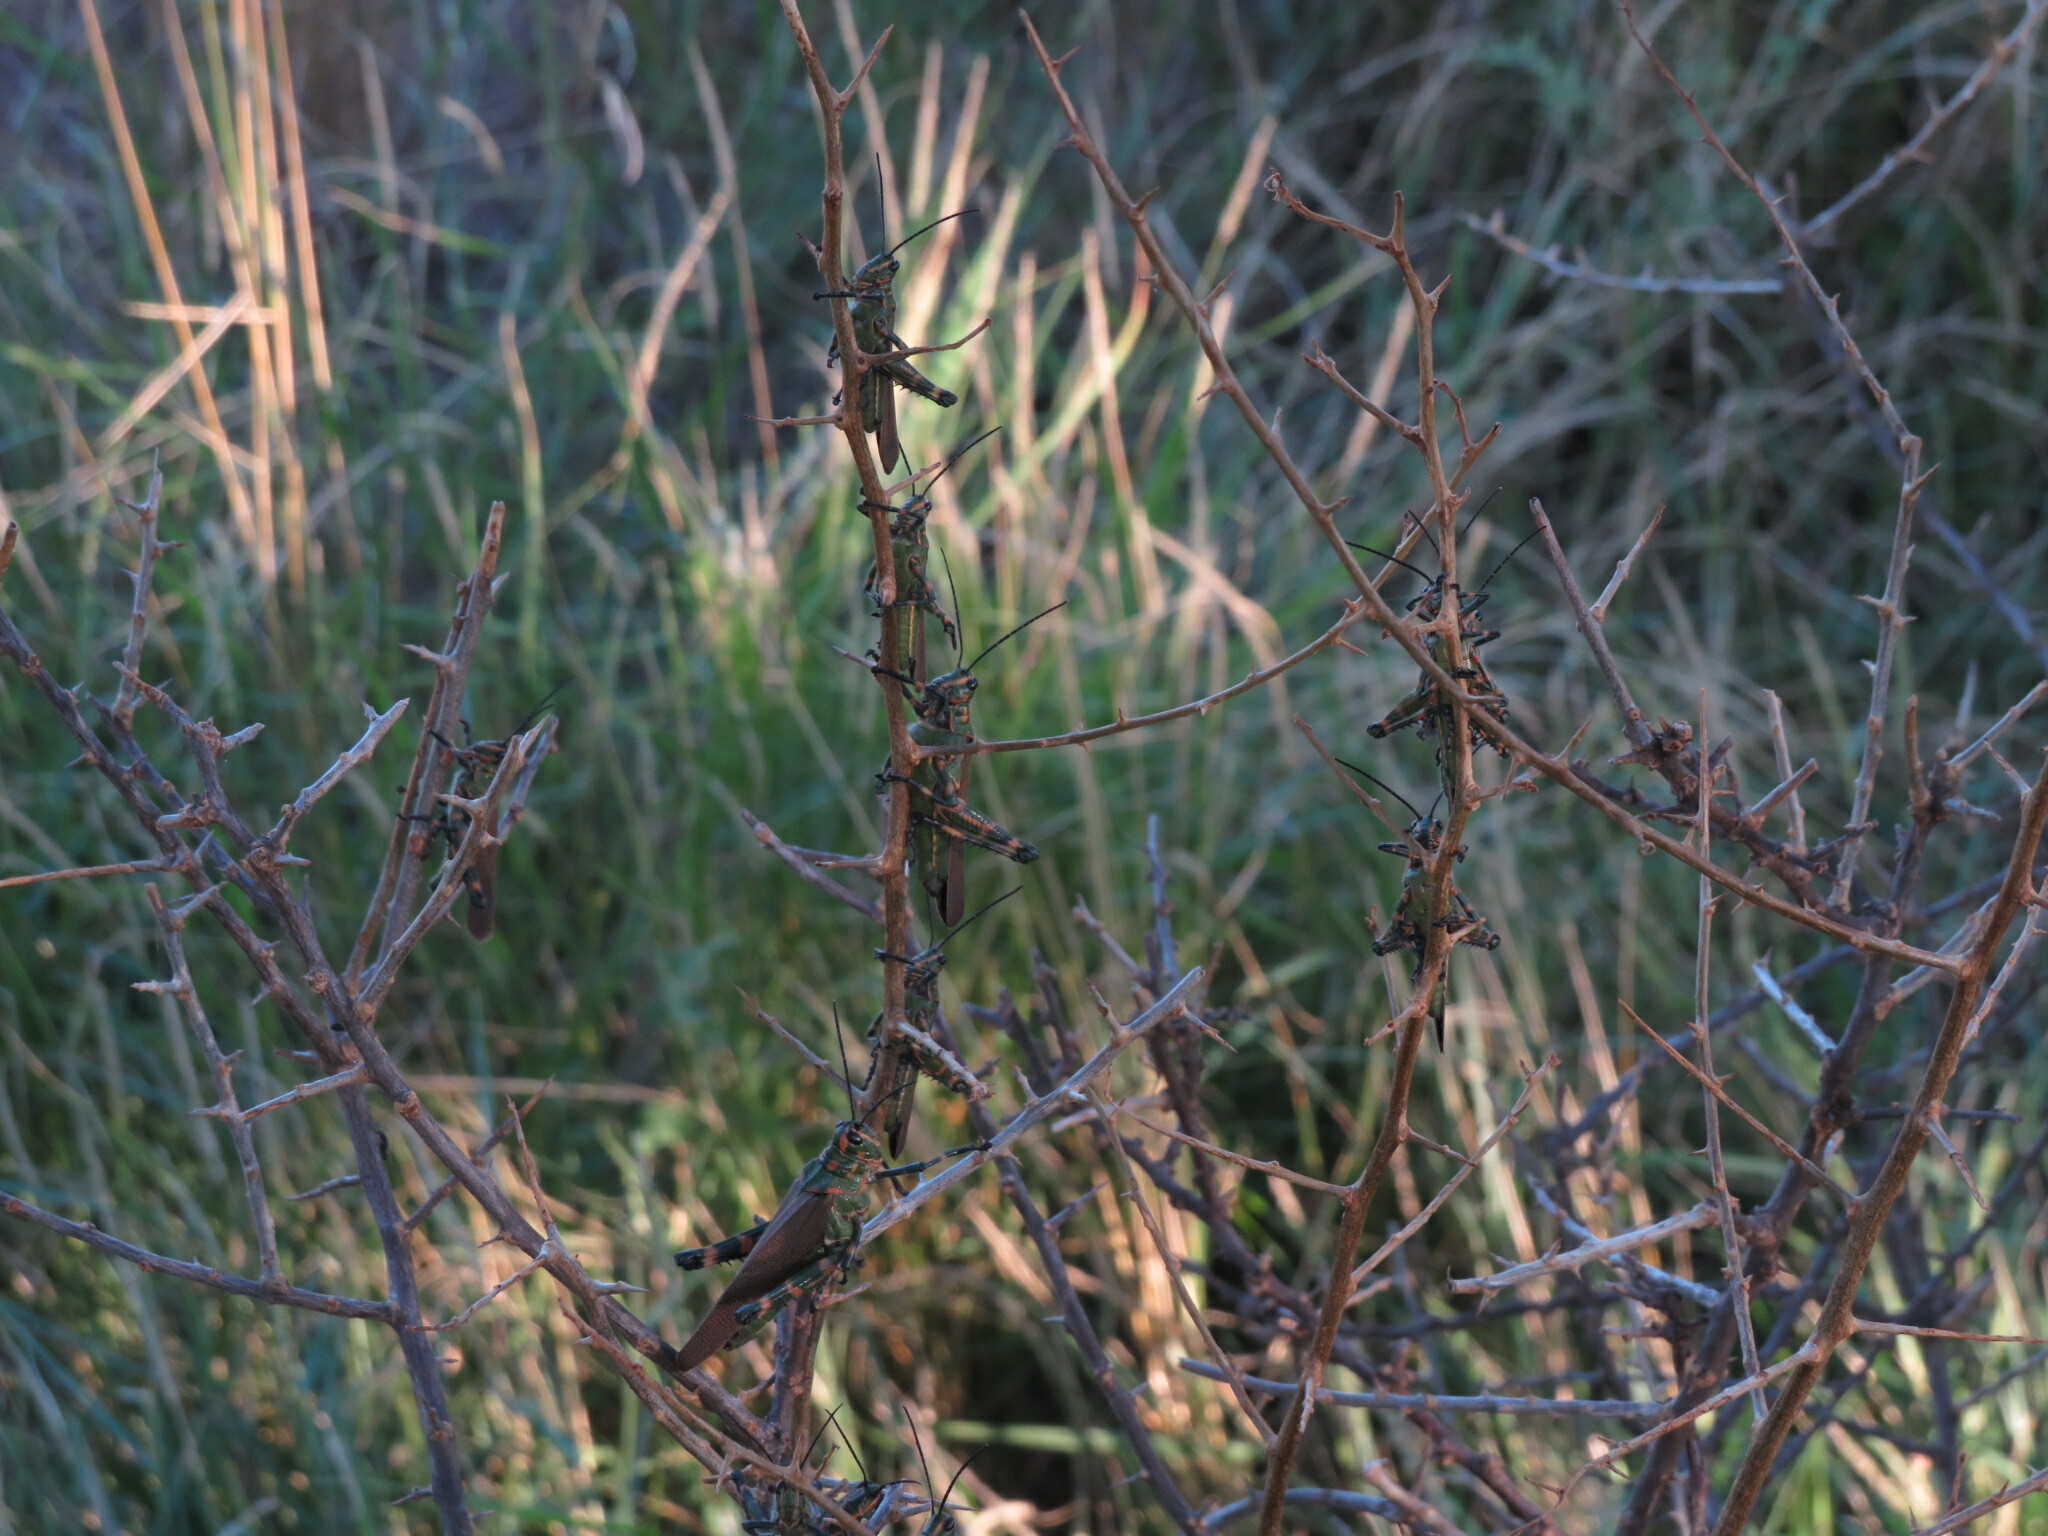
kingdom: Animalia
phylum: Arthropoda
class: Insecta
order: Orthoptera
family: Romaleidae
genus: Chromacris
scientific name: Chromacris speciosa
